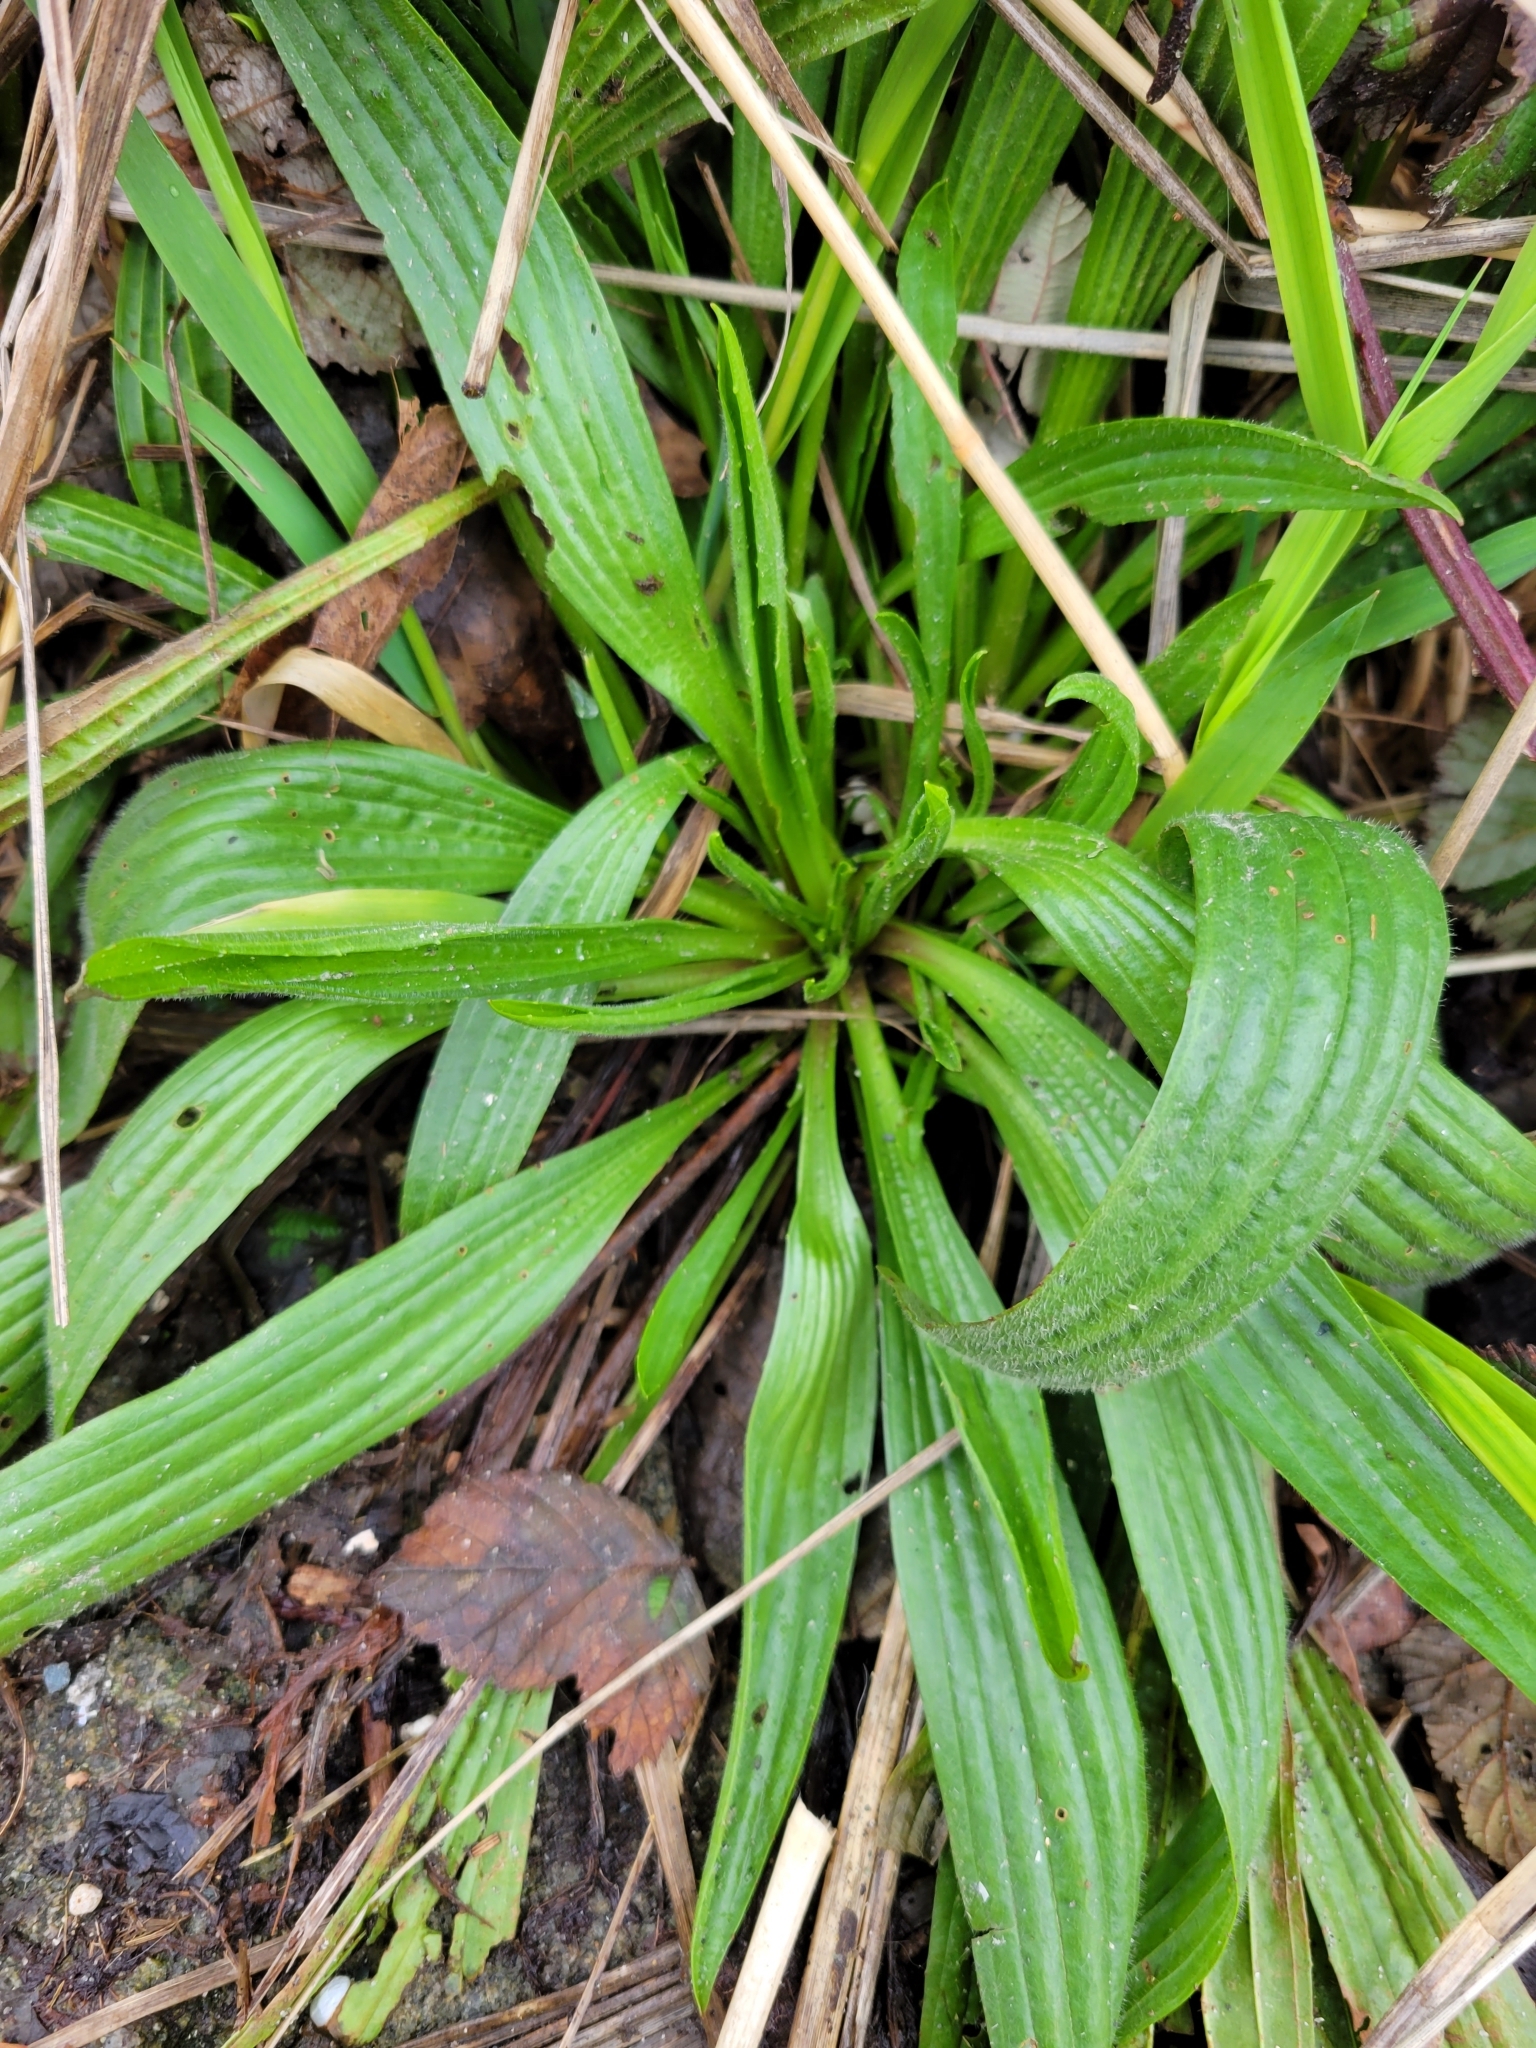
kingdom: Plantae
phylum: Tracheophyta
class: Magnoliopsida
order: Lamiales
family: Plantaginaceae
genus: Plantago
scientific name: Plantago lanceolata
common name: Ribwort plantain
